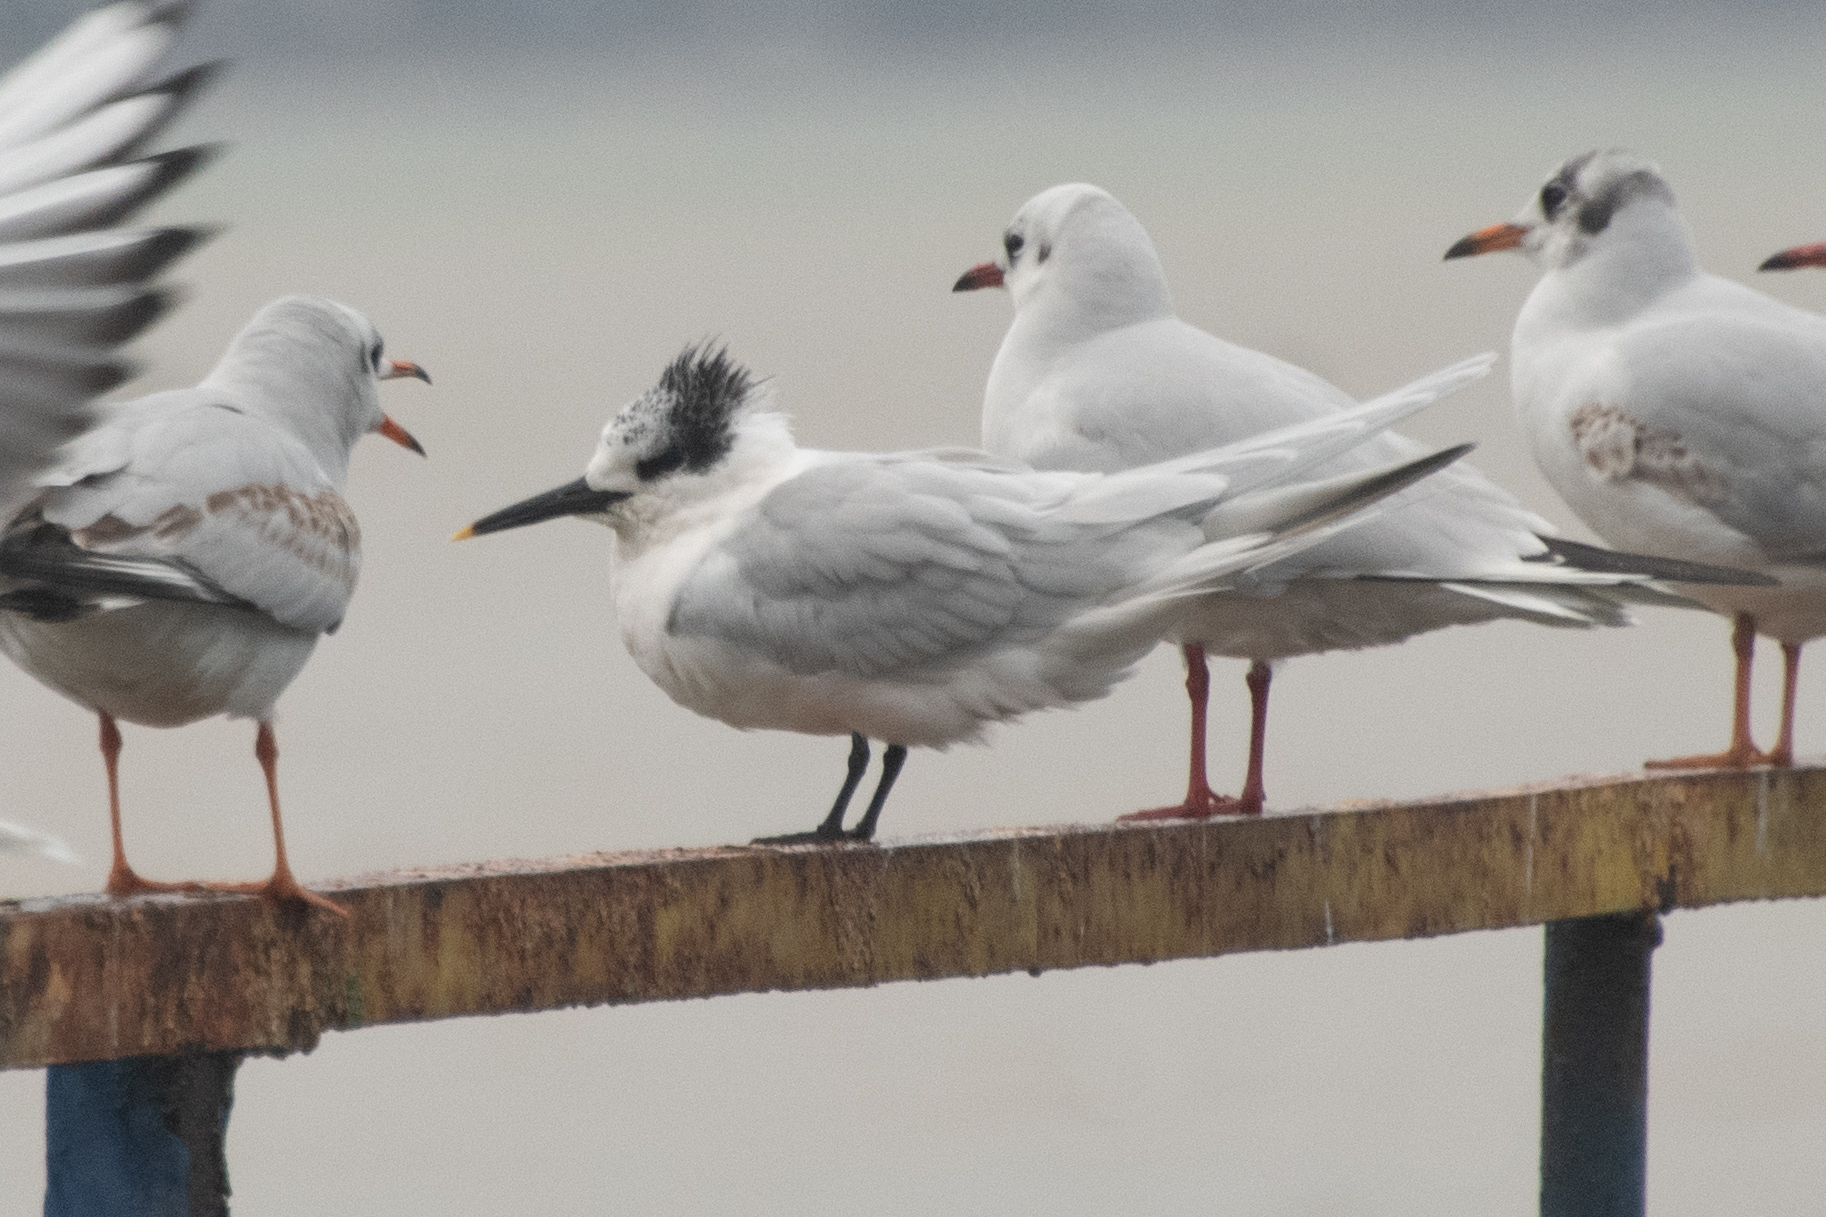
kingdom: Animalia
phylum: Chordata
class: Aves
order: Charadriiformes
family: Laridae
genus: Thalasseus
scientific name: Thalasseus sandvicensis
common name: Sandwich tern
